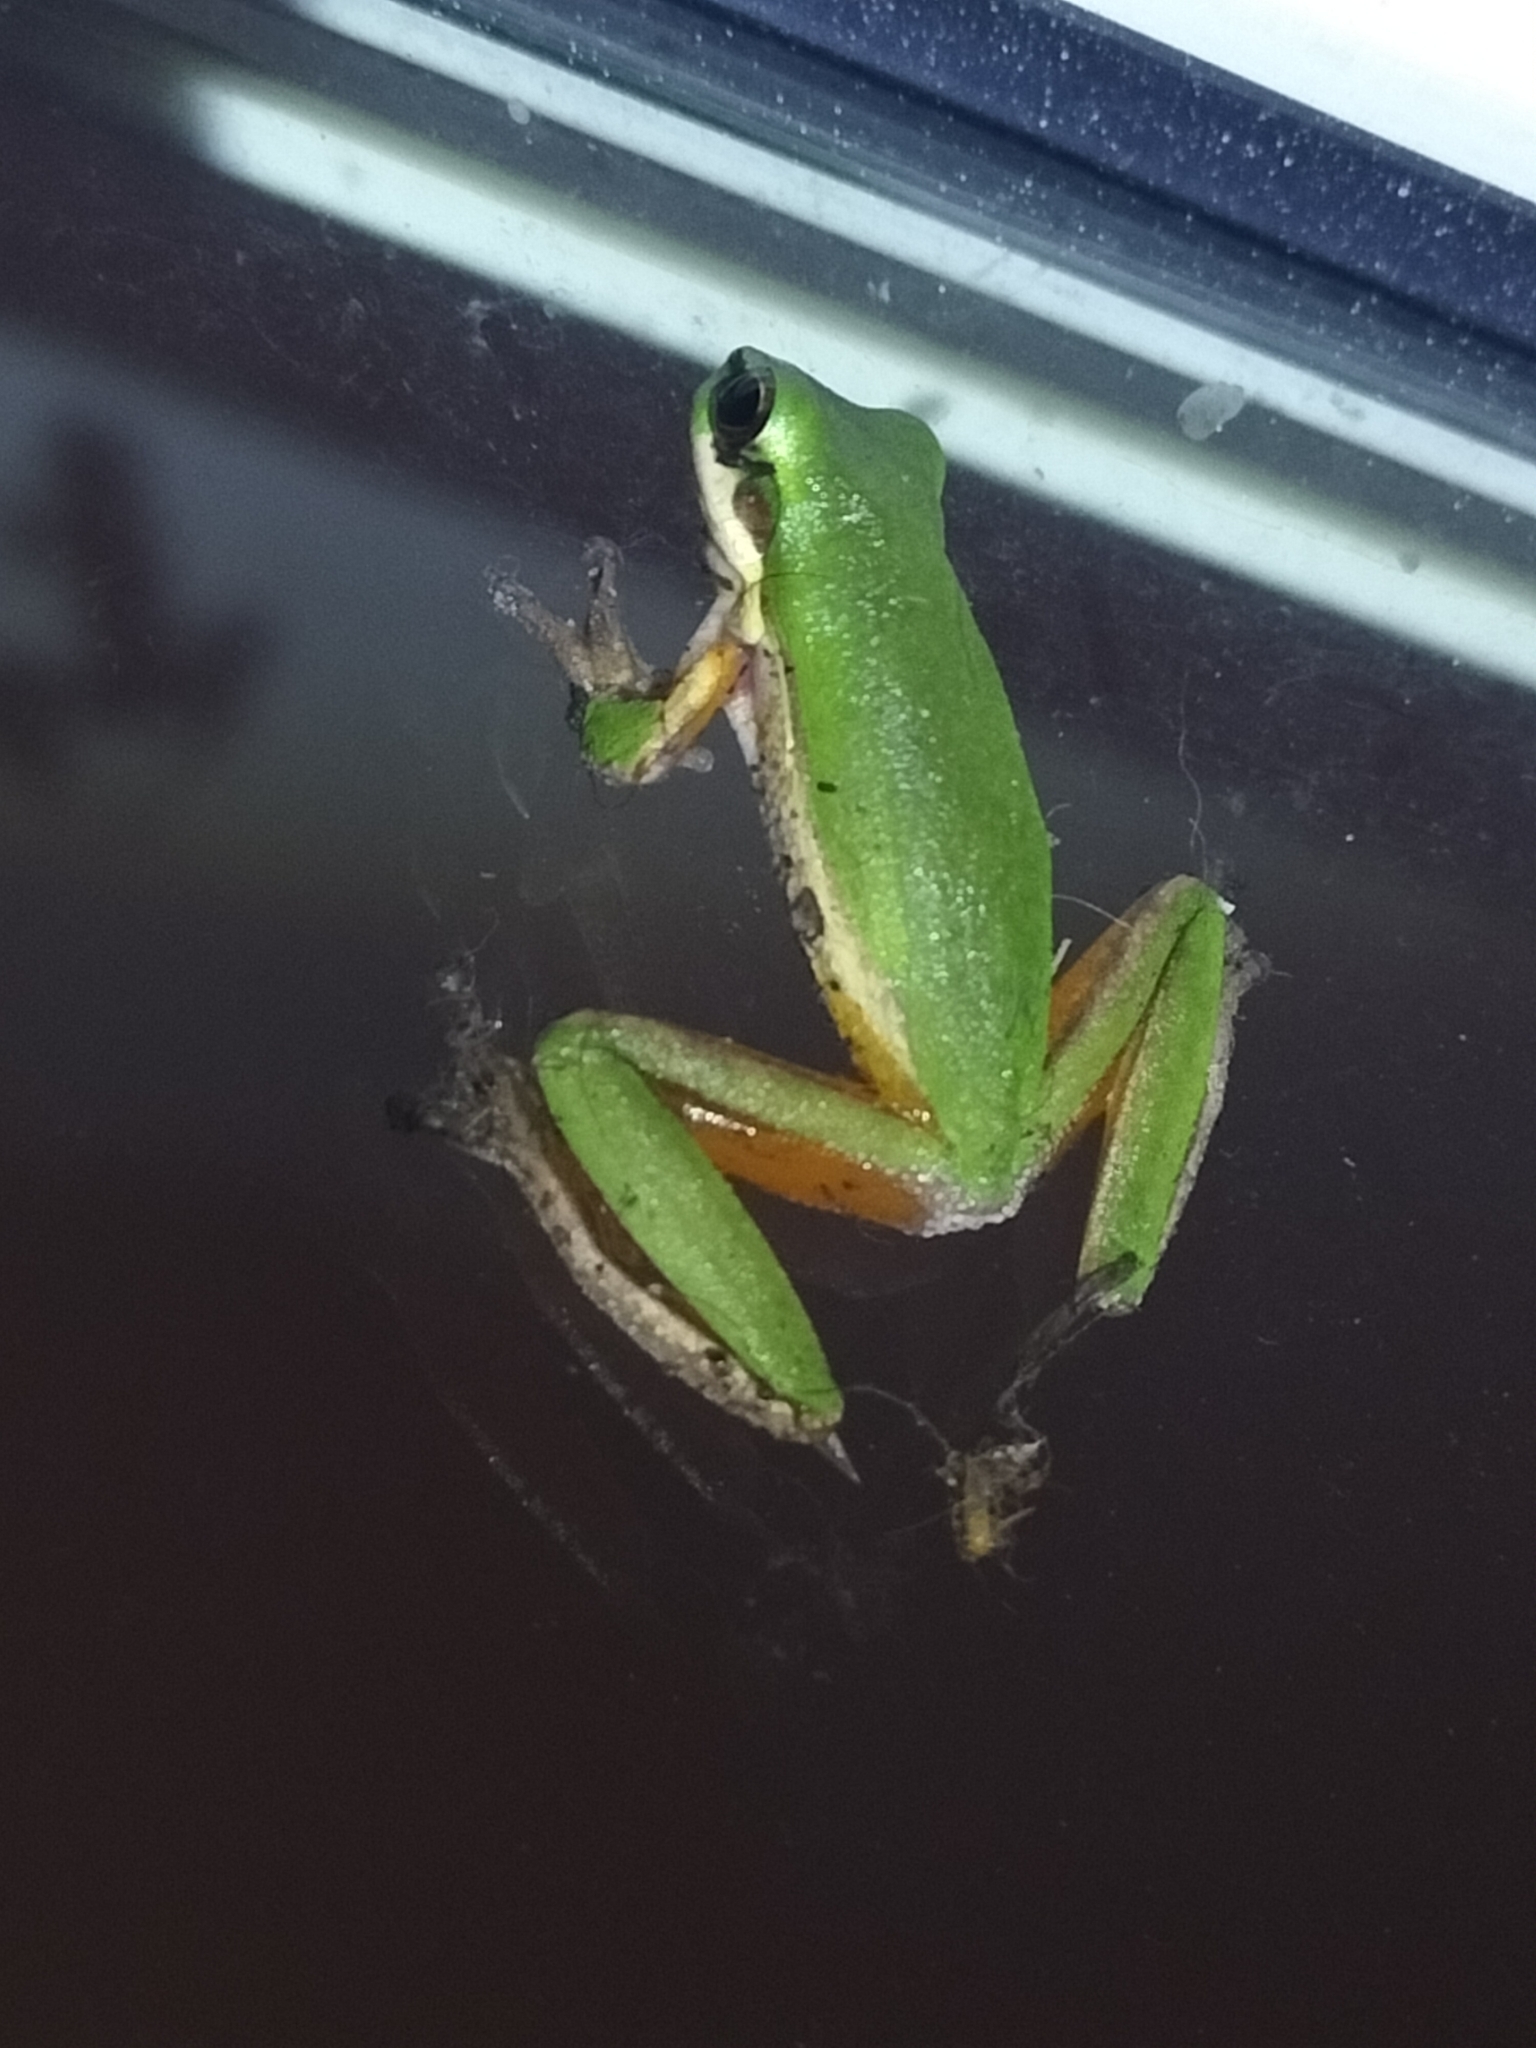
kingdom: Animalia
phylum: Chordata
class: Amphibia
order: Anura
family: Pelodryadidae
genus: Litoria
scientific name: Litoria fallax
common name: Eastern dwarf treefrog
